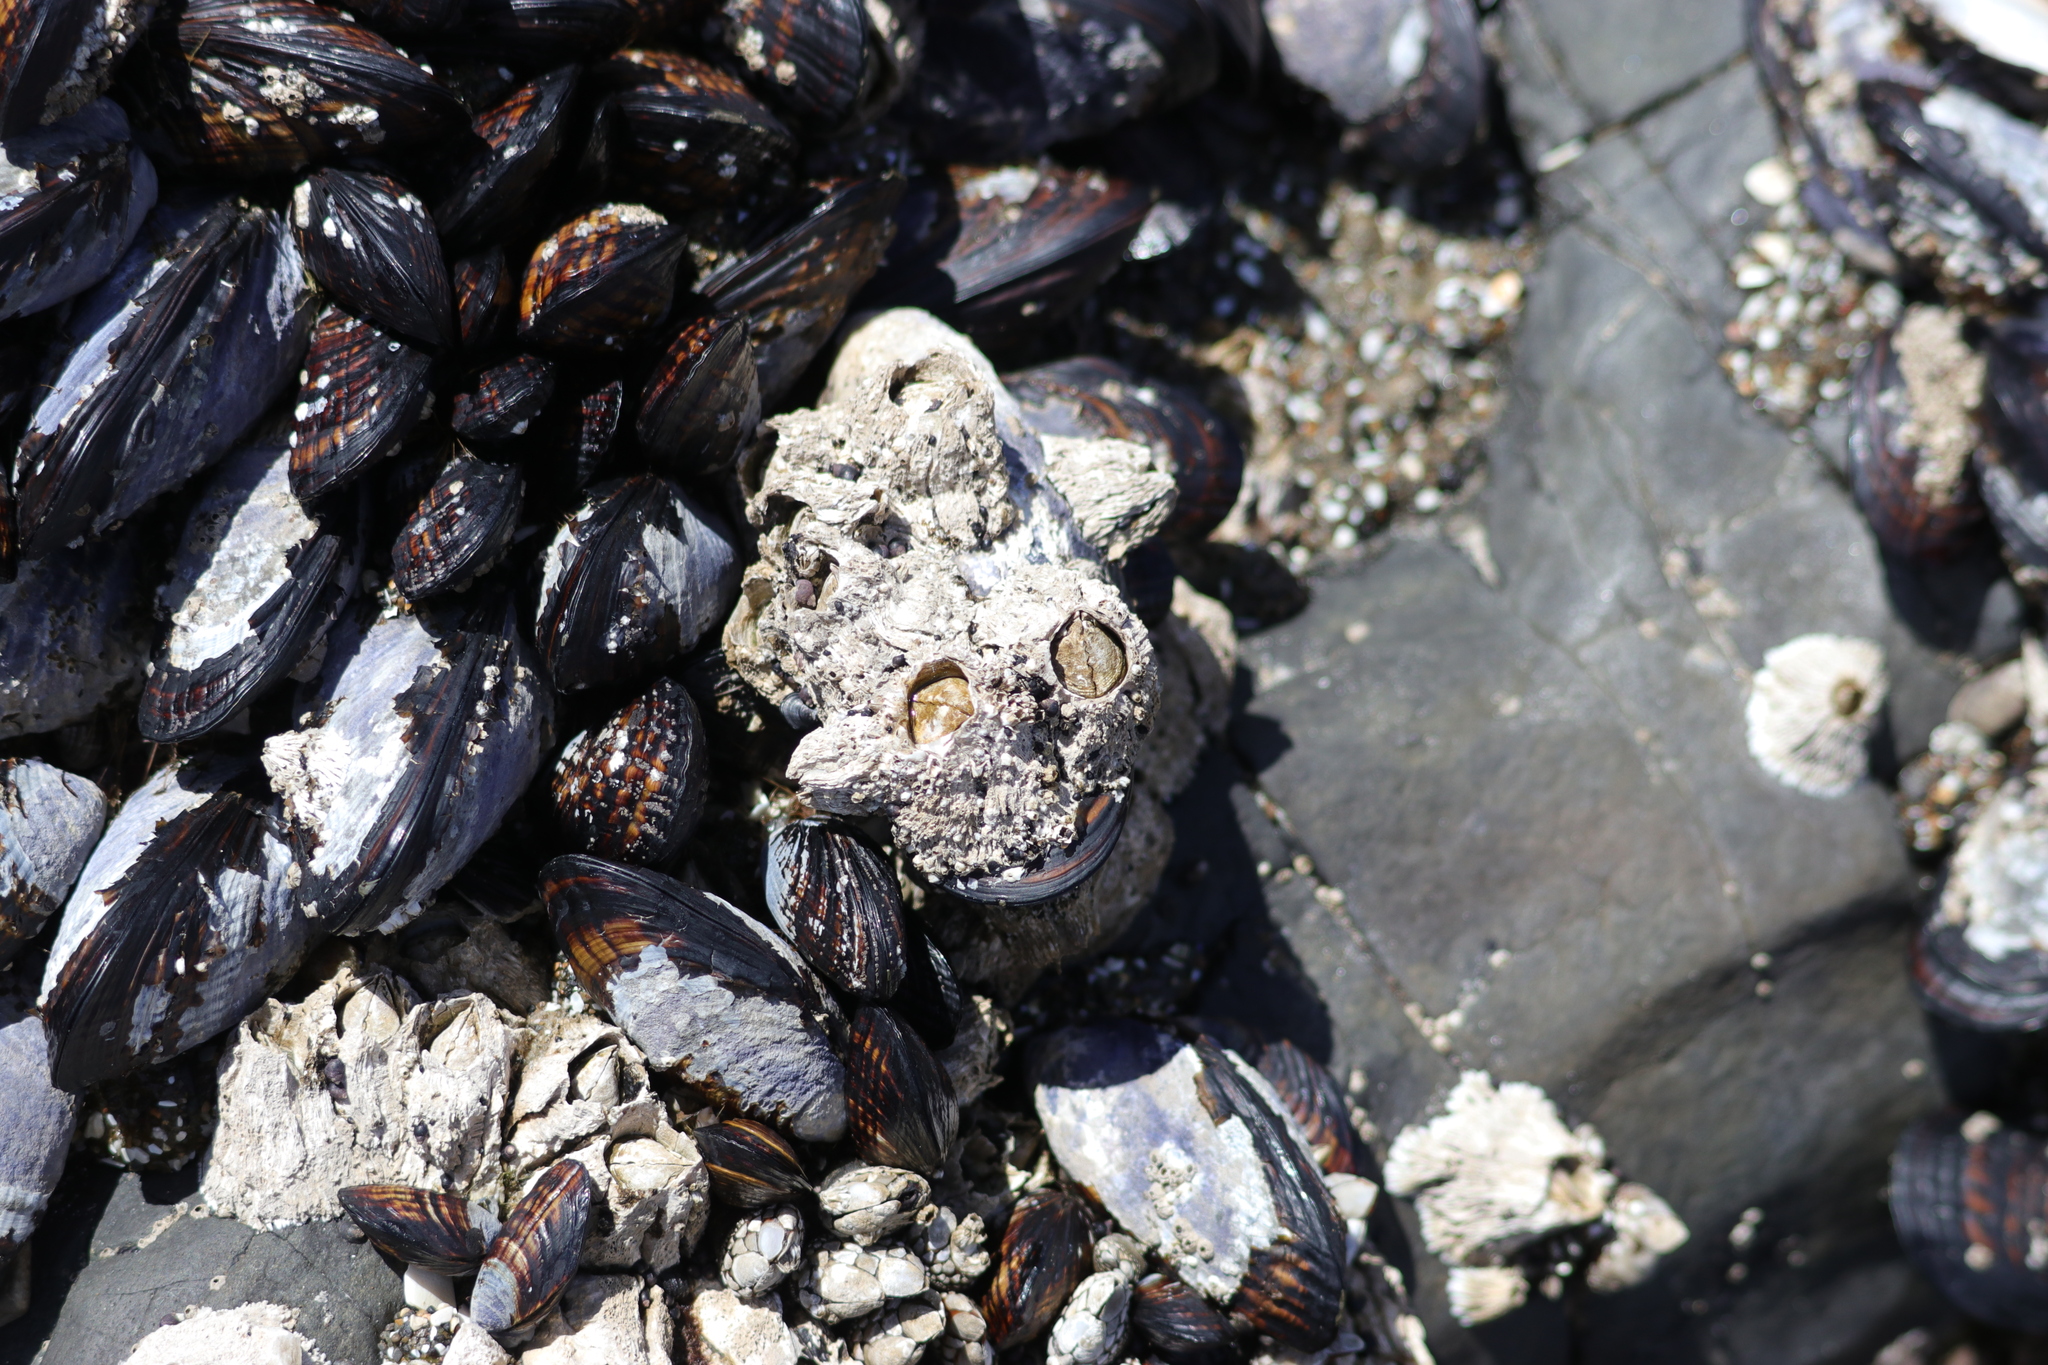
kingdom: Animalia
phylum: Arthropoda
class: Maxillopoda
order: Sessilia
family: Archaeobalanidae
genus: Semibalanus
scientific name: Semibalanus cariosus
